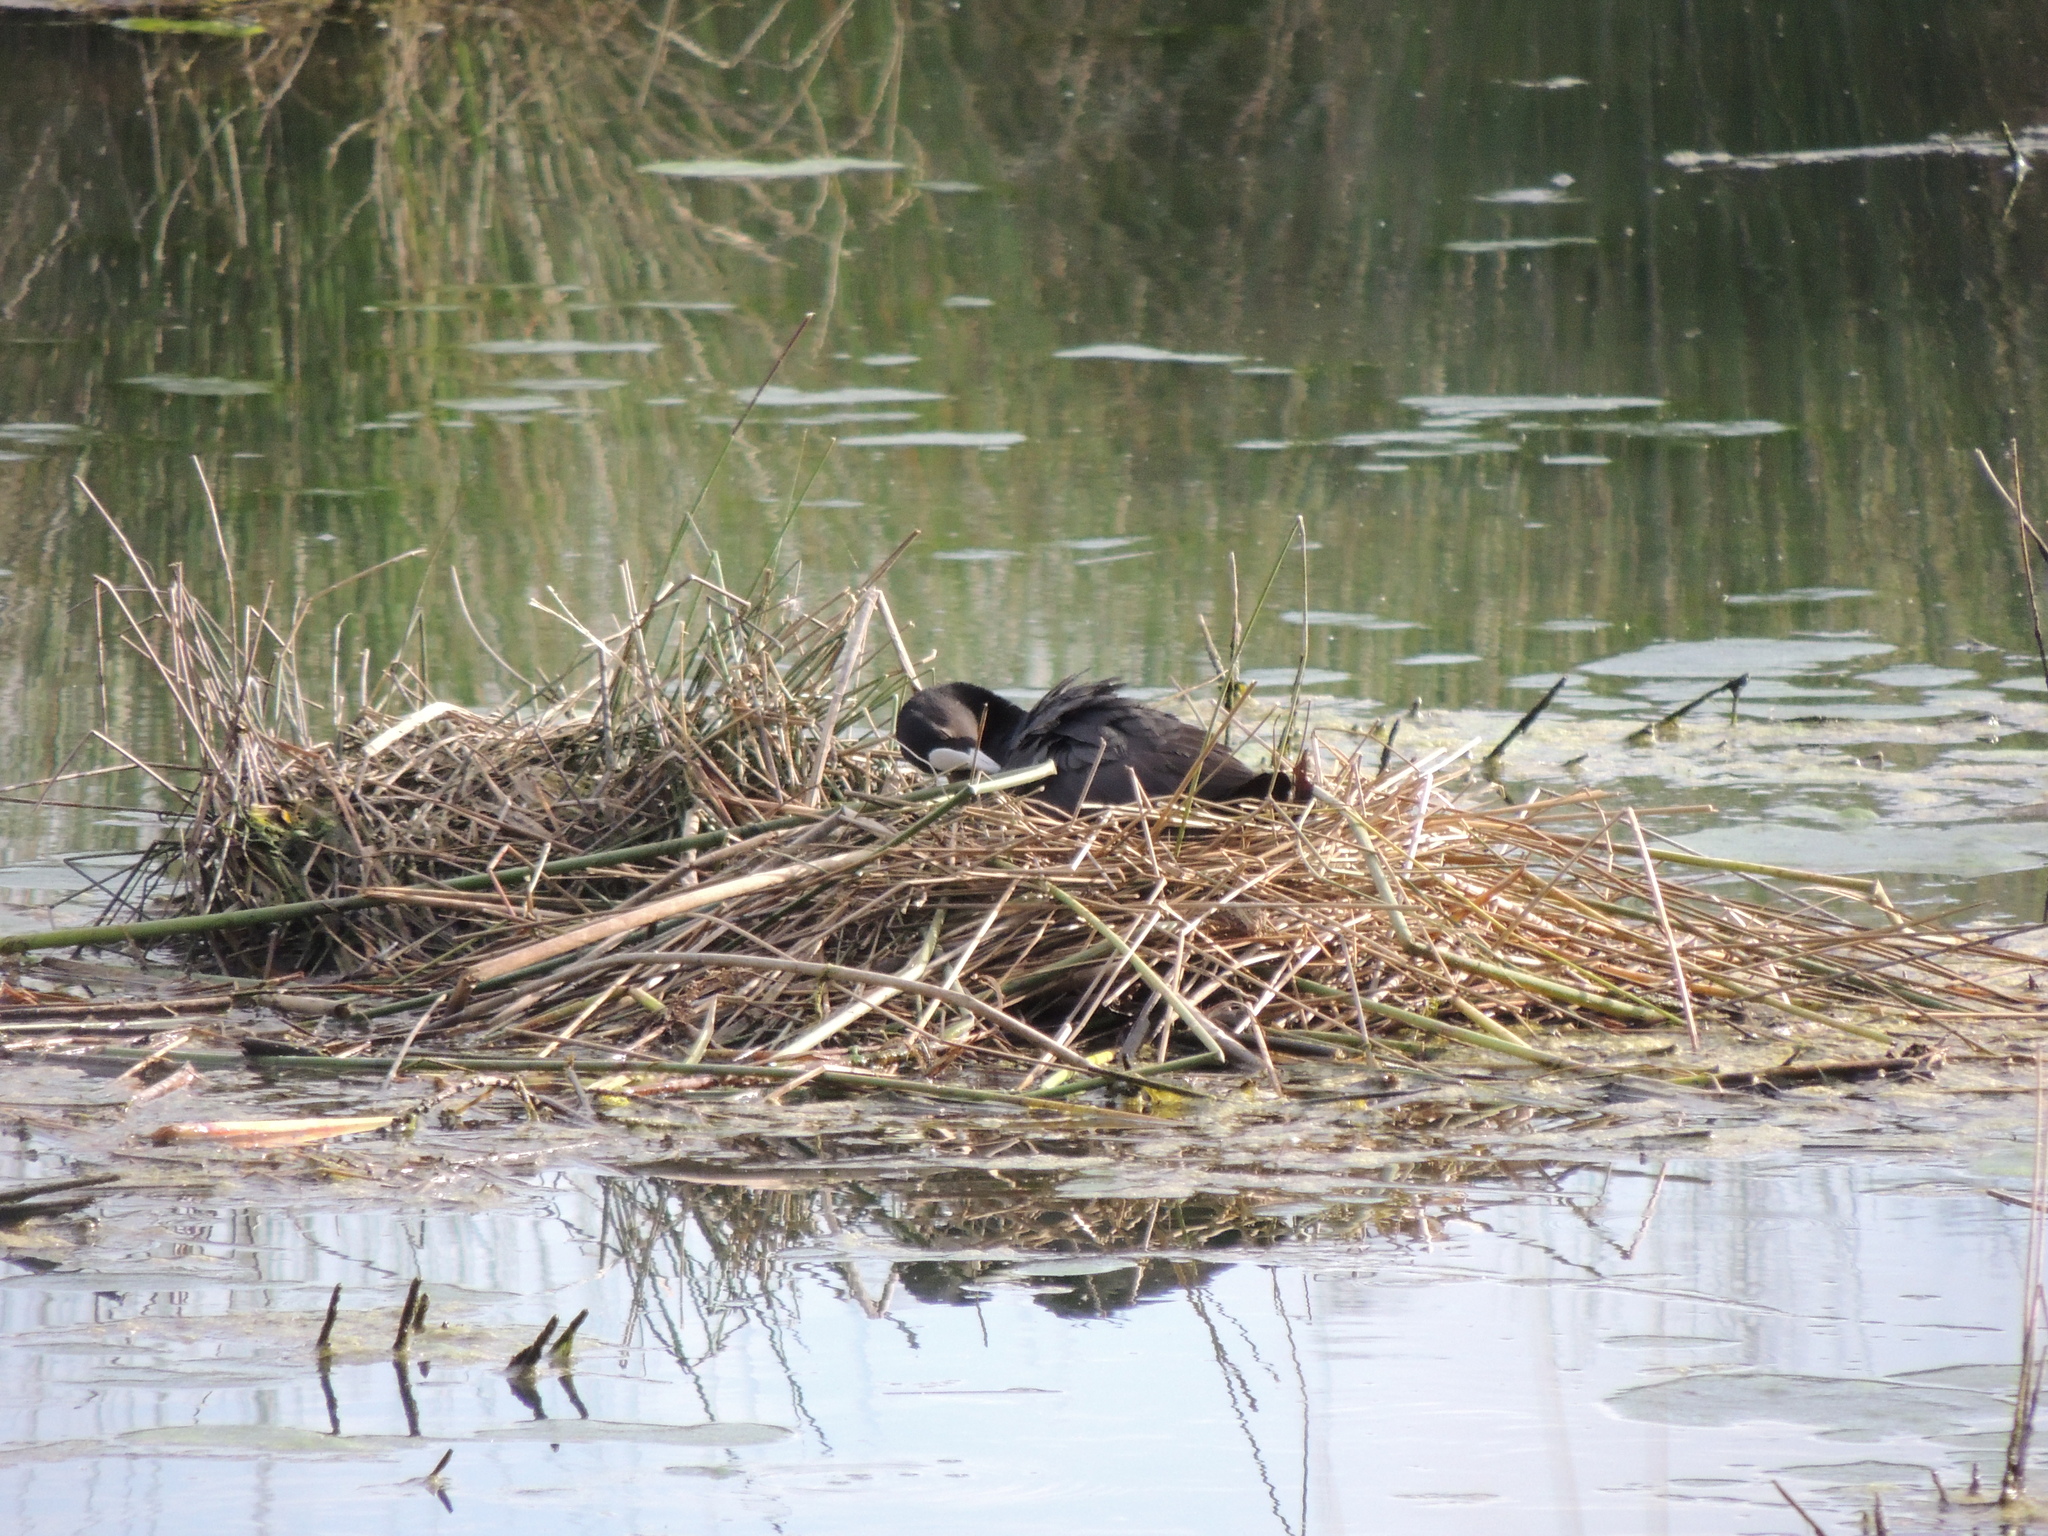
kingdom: Animalia
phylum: Chordata
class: Aves
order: Gruiformes
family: Rallidae
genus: Fulica
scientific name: Fulica atra
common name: Eurasian coot
